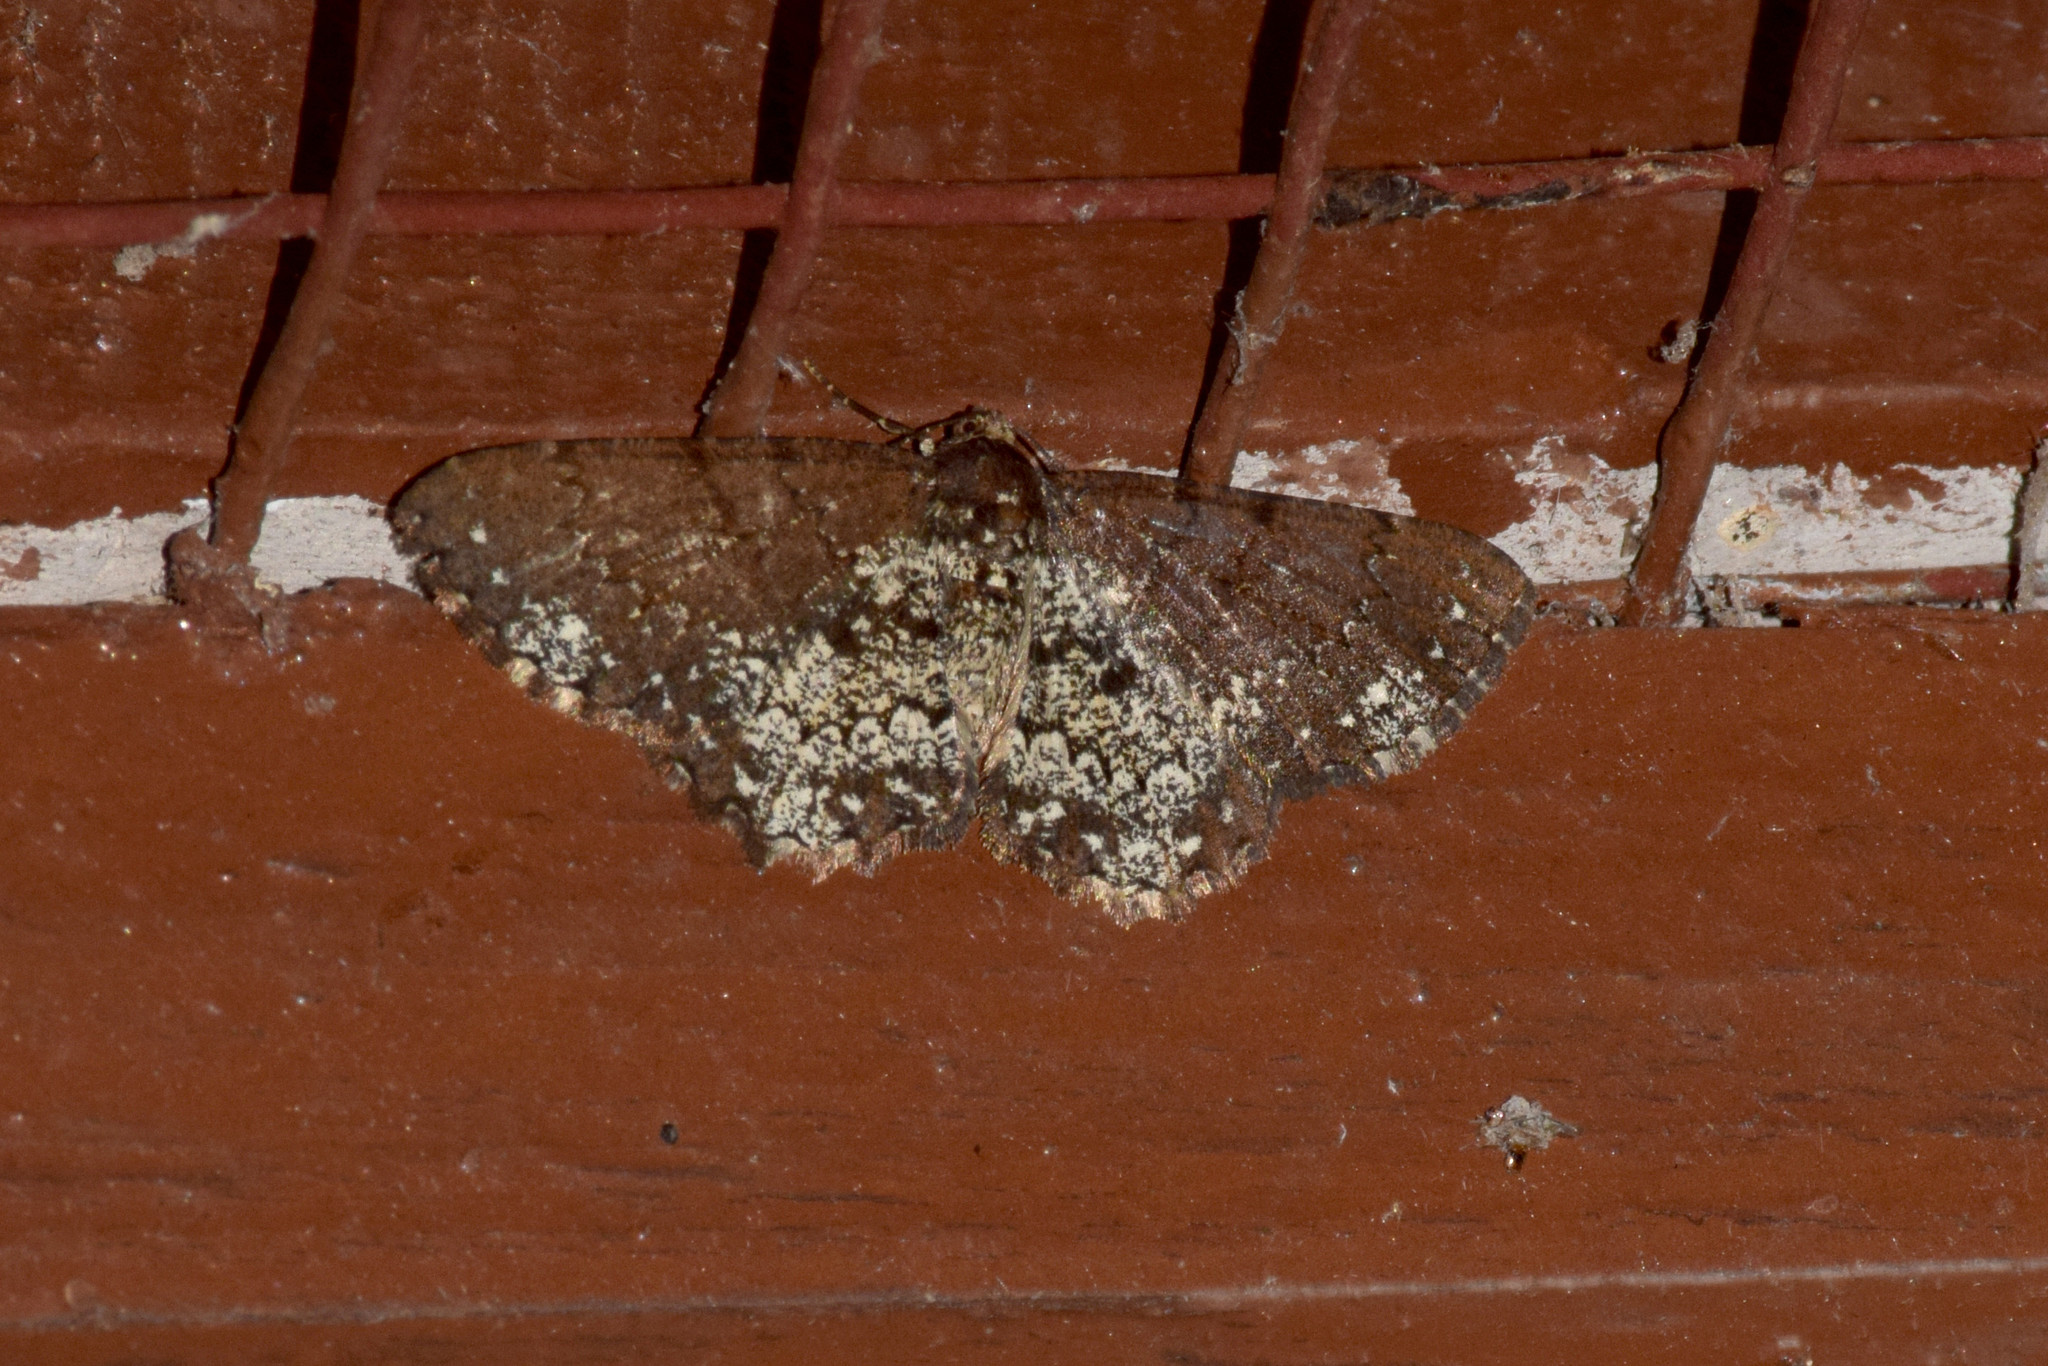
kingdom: Animalia
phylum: Arthropoda
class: Insecta
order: Lepidoptera
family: Geometridae
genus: Abaciscus
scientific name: Abaciscus tristis
